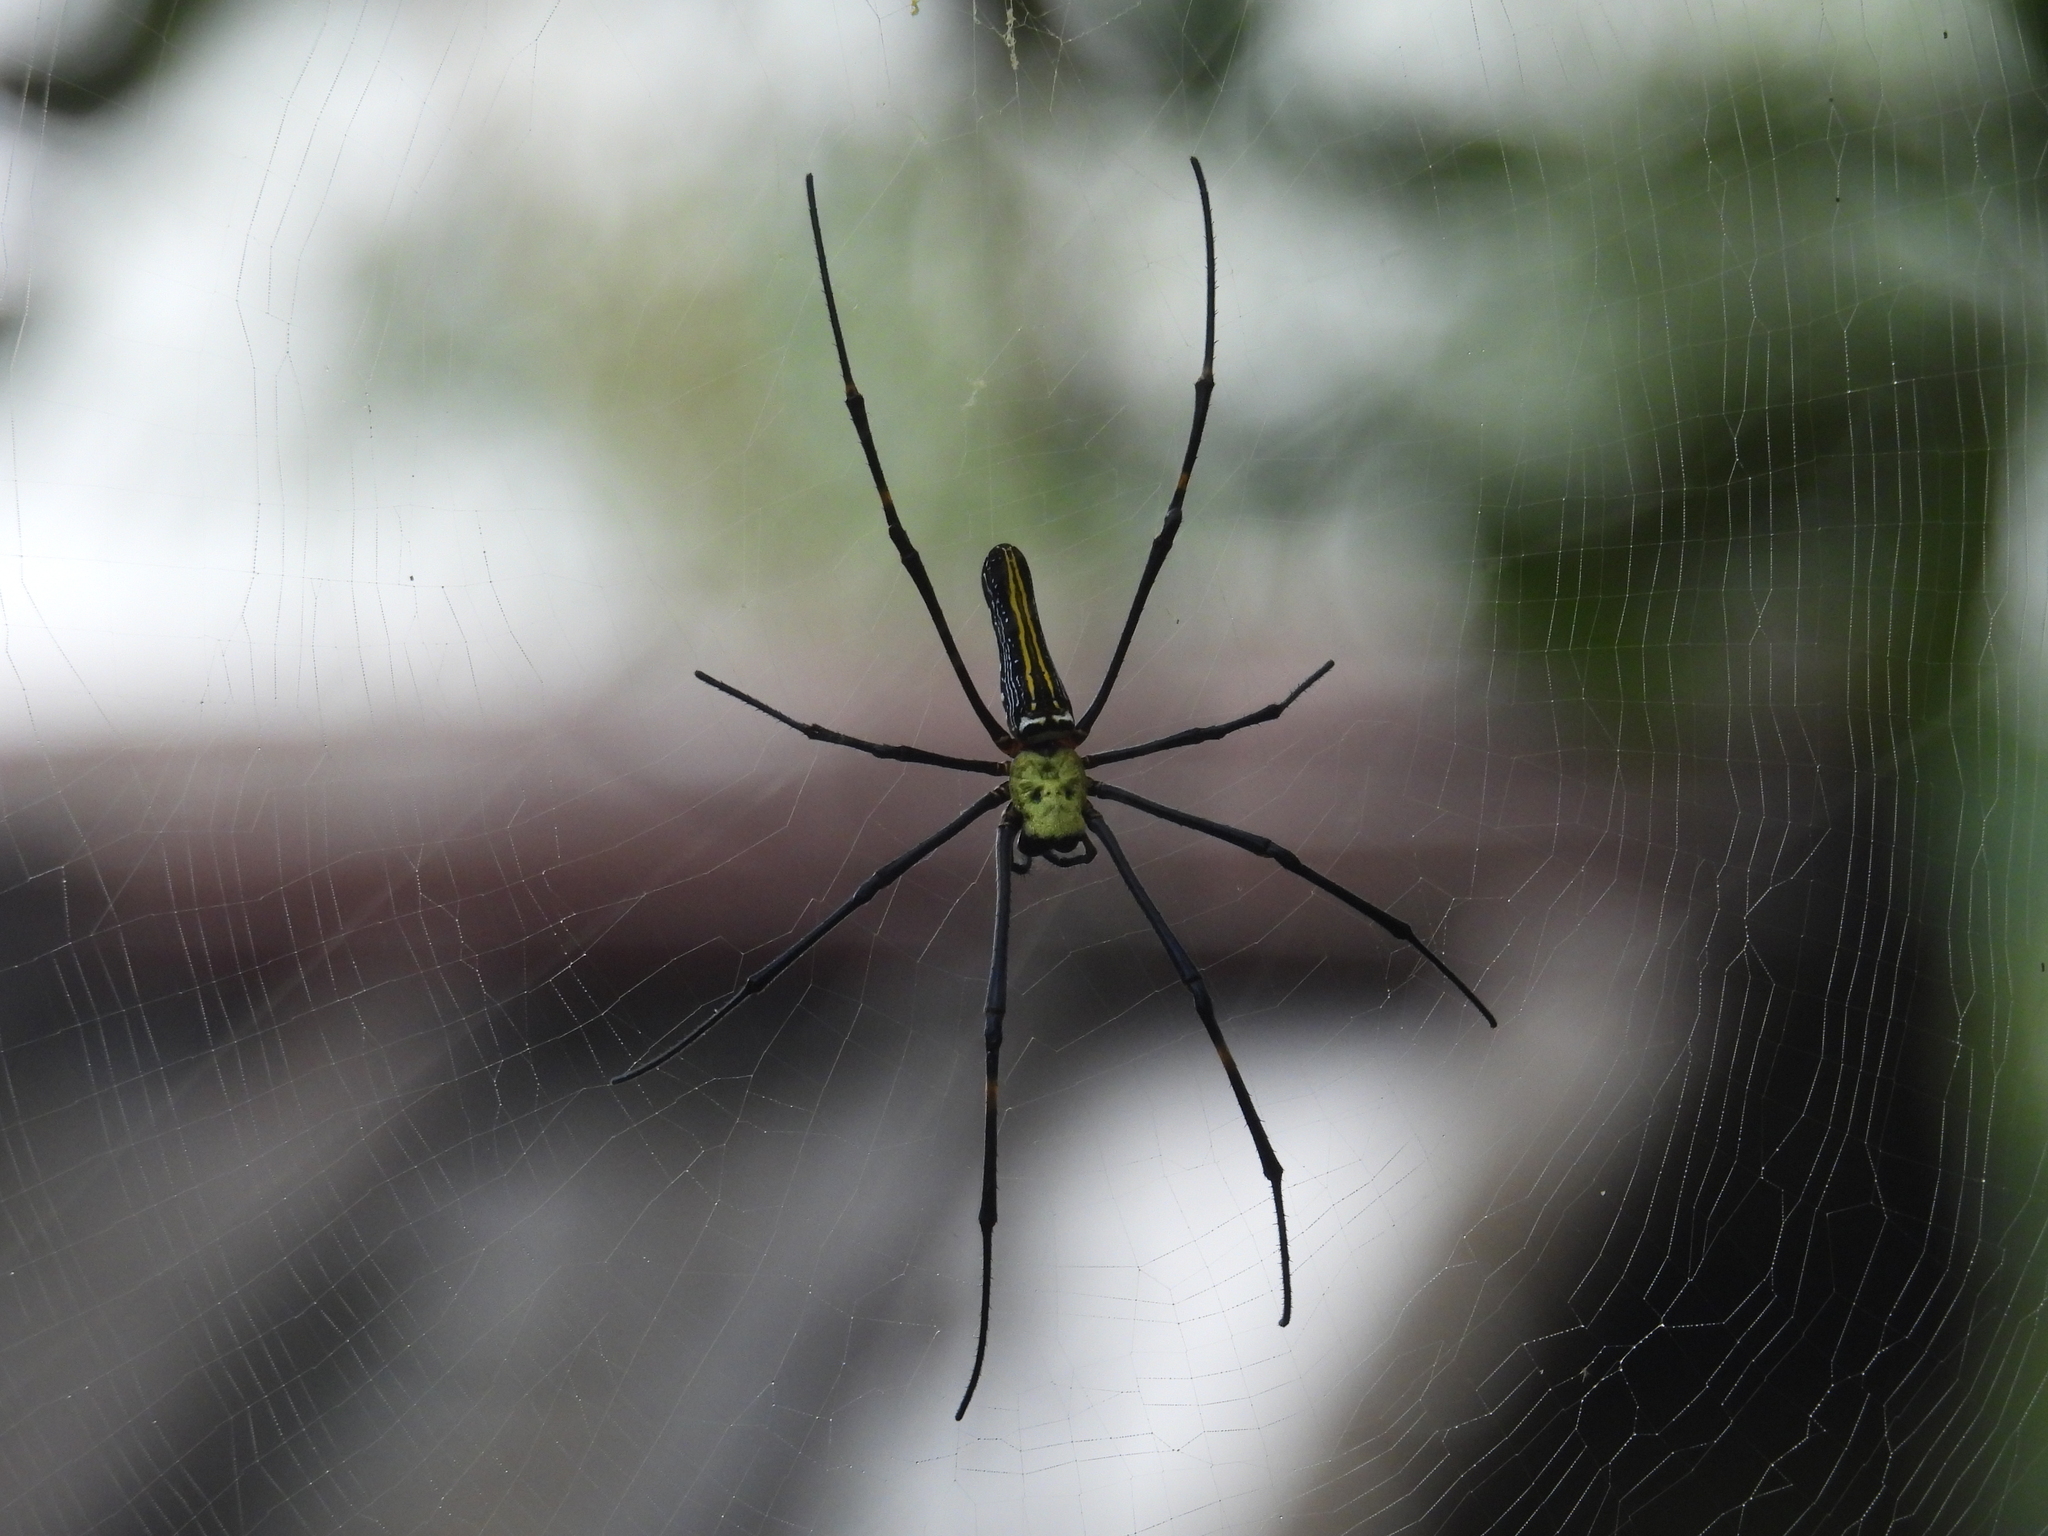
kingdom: Animalia
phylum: Arthropoda
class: Arachnida
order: Araneae
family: Araneidae
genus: Nephila
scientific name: Nephila pilipes
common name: Giant golden orb weaver
